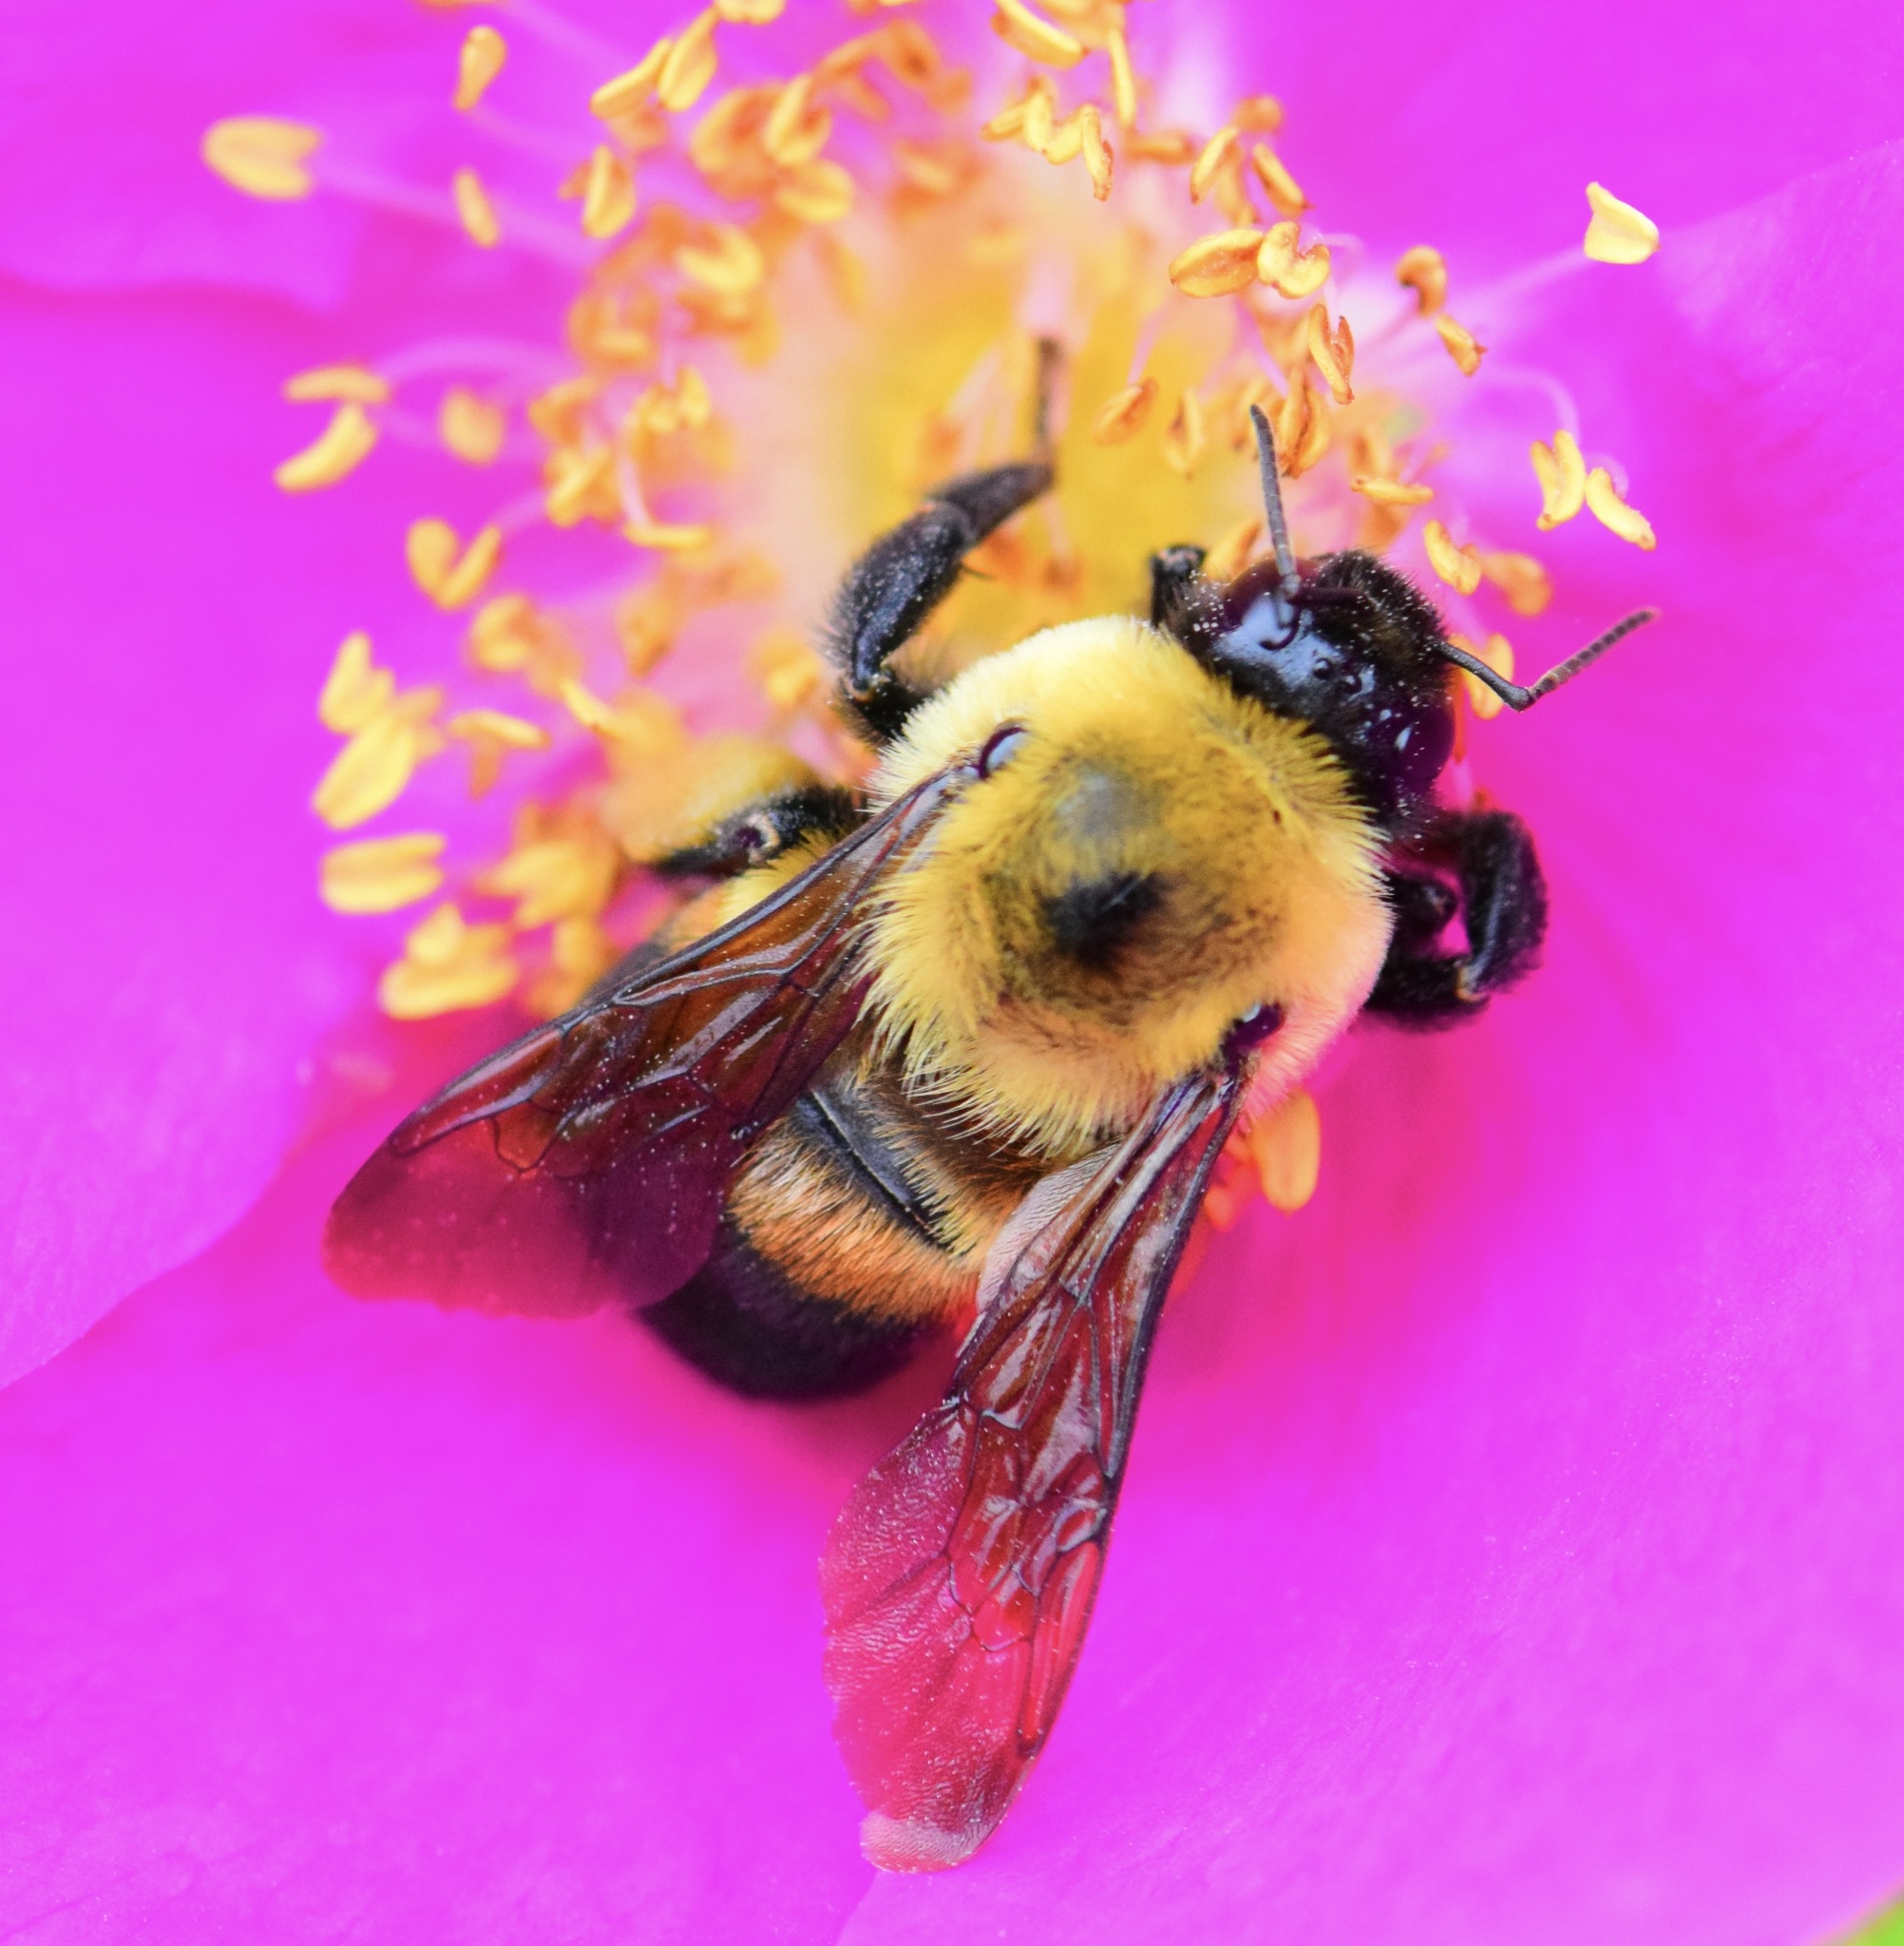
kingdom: Animalia
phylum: Arthropoda
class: Insecta
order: Hymenoptera
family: Apidae
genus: Bombus
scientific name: Bombus griseocollis
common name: Brown-belted bumble bee
